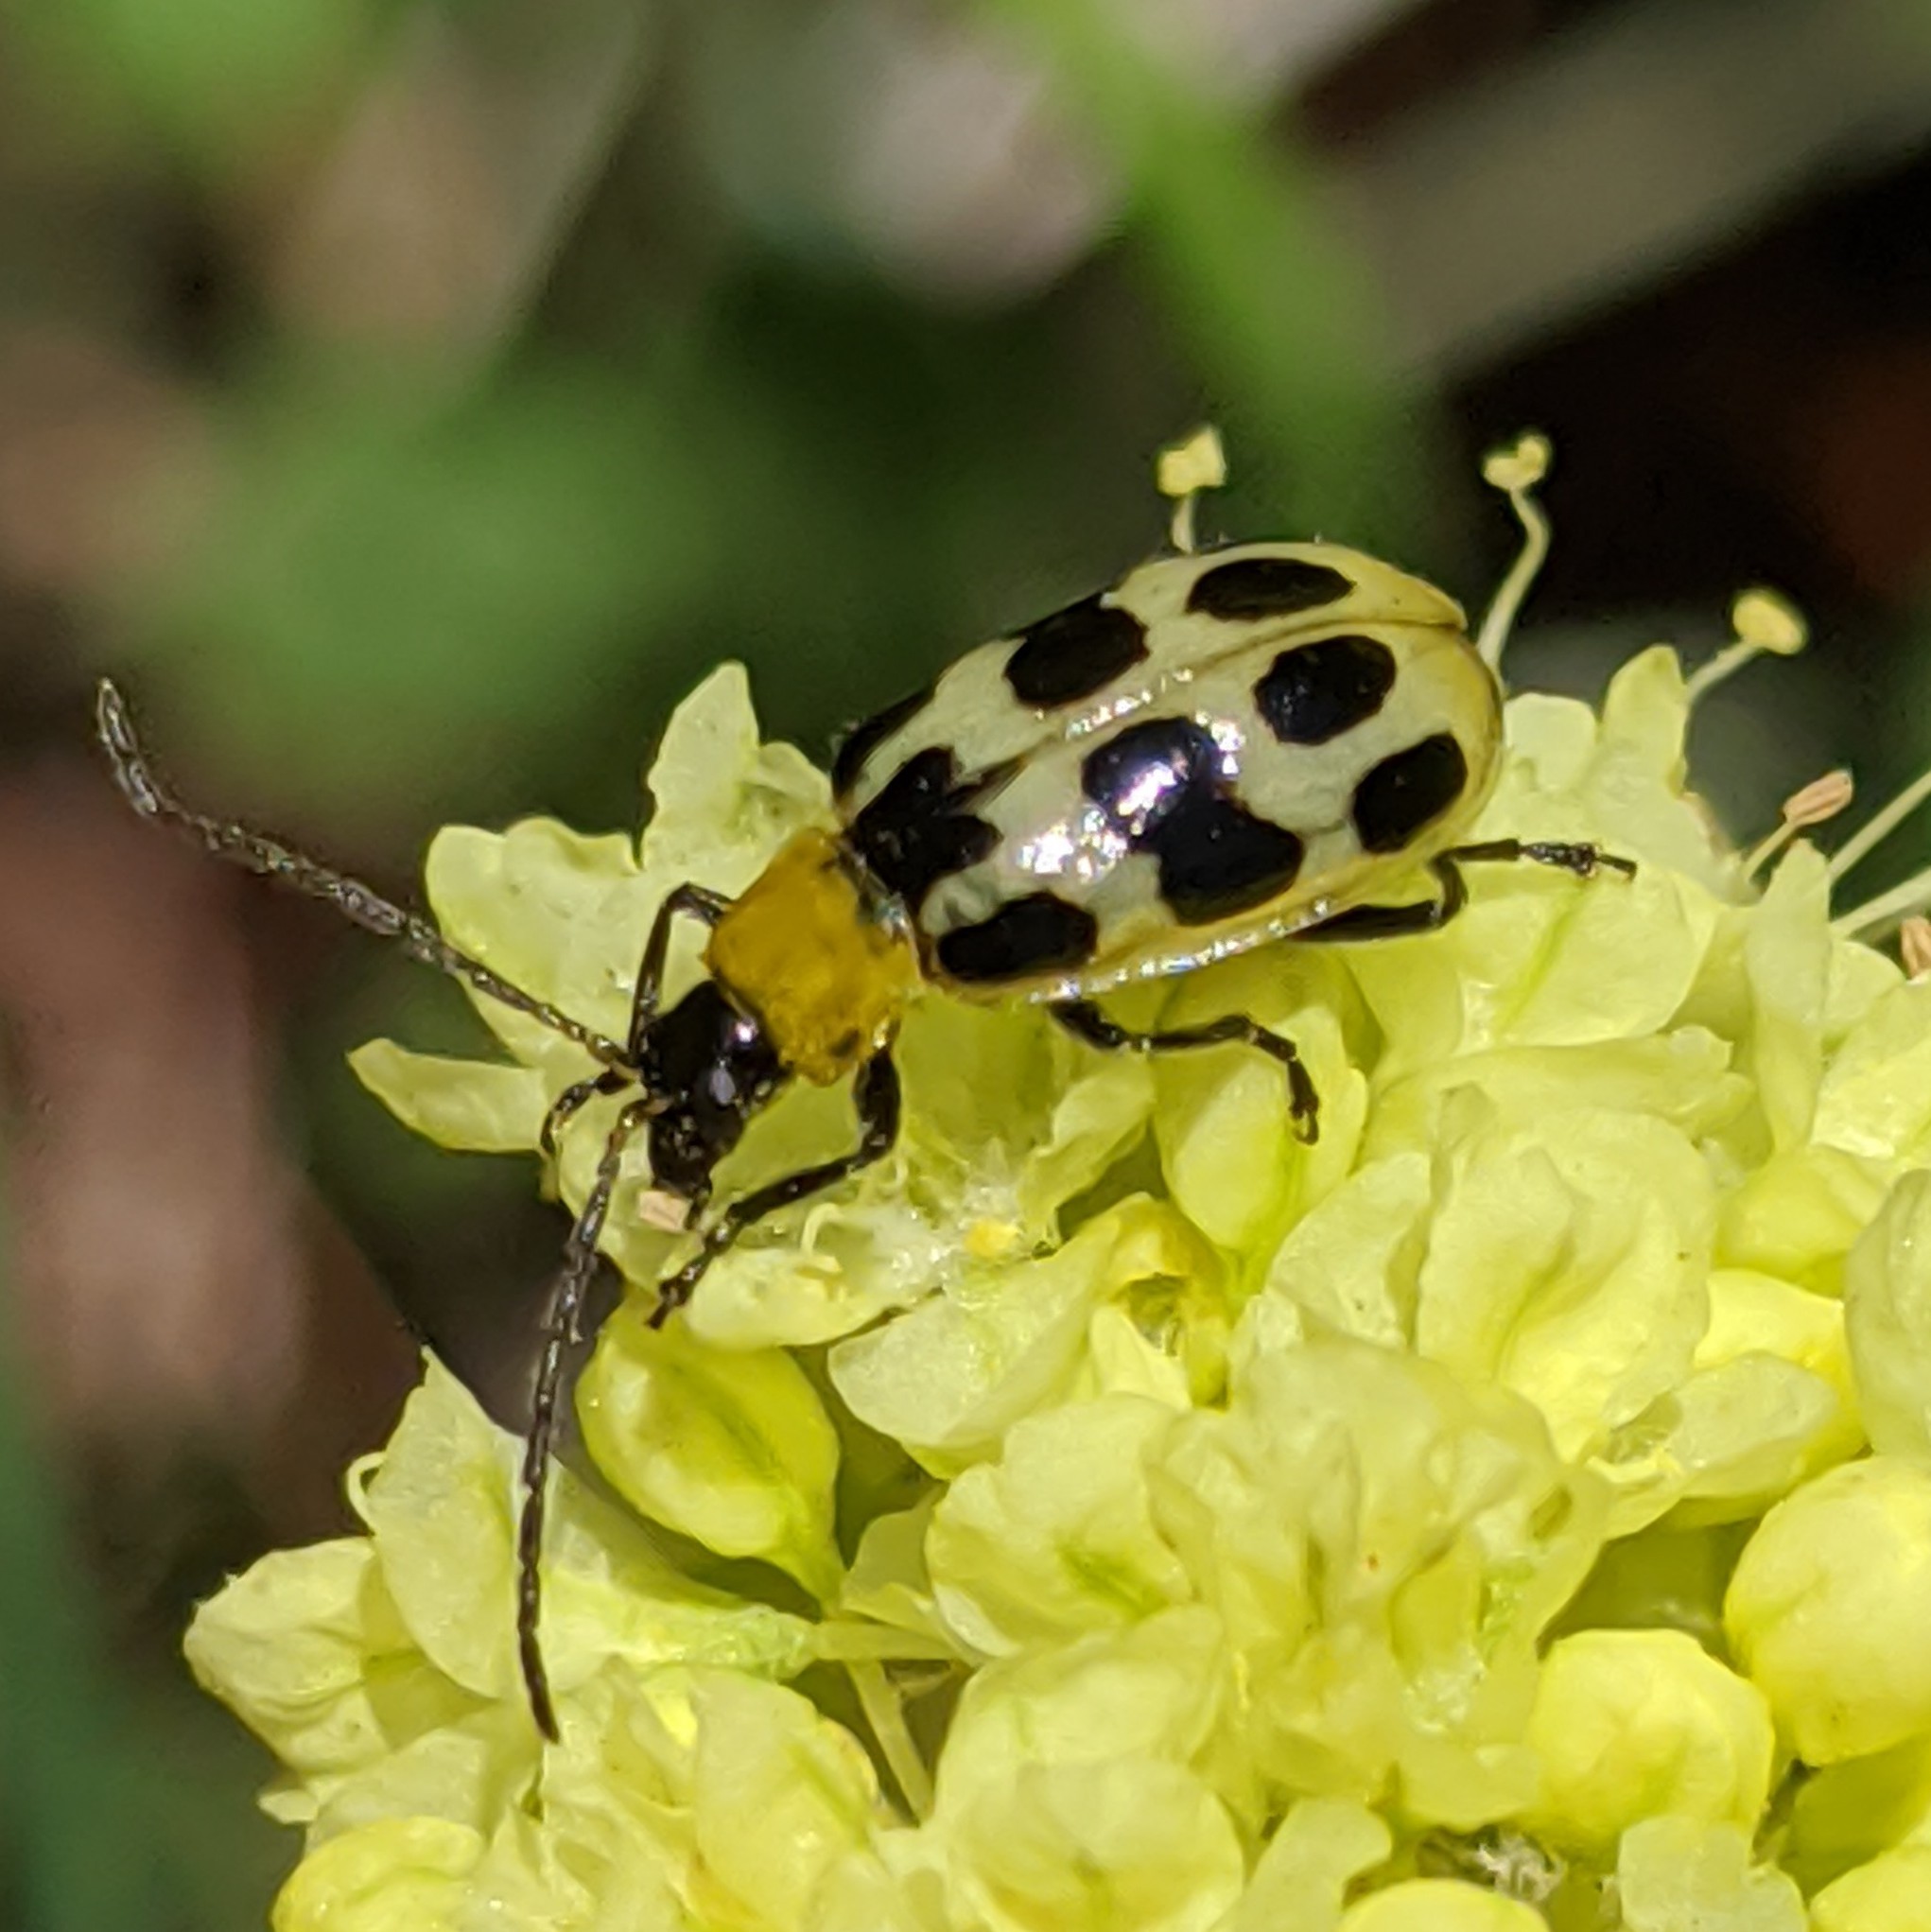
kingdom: Animalia
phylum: Arthropoda
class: Insecta
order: Coleoptera
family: Chrysomelidae
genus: Diabrotica
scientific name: Diabrotica undecimpunctata
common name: Spotted cucumber beetle
